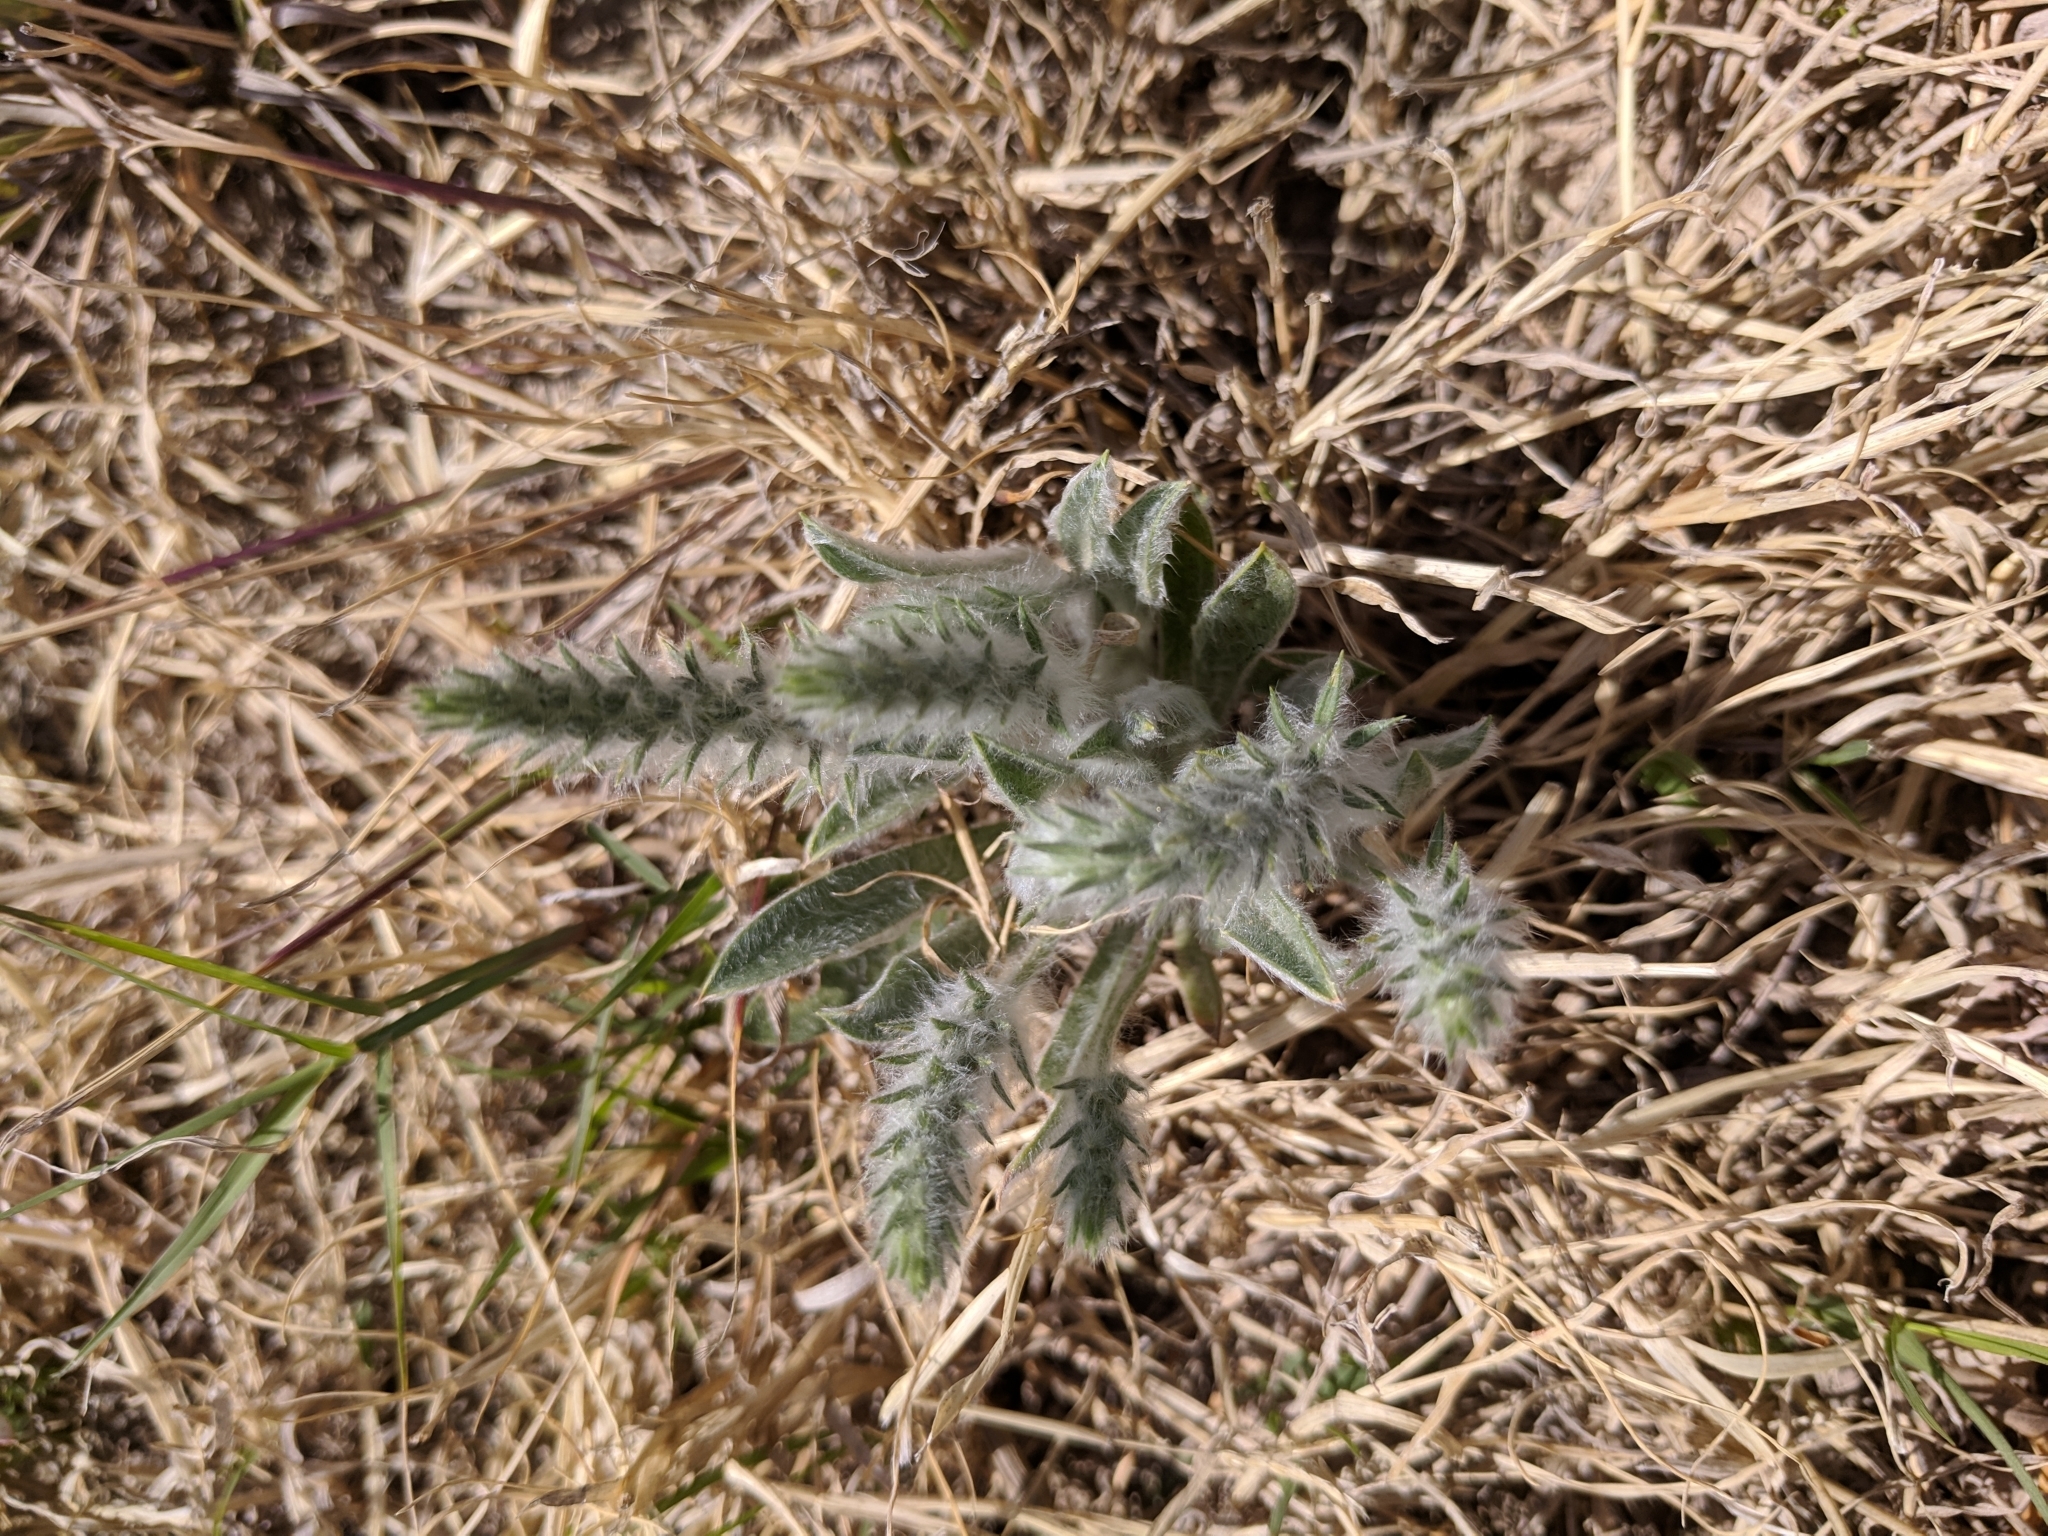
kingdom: Plantae
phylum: Tracheophyta
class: Magnoliopsida
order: Lamiales
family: Plantaginaceae
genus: Plantago
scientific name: Plantago patagonica
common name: Patagonia indian-wheat
